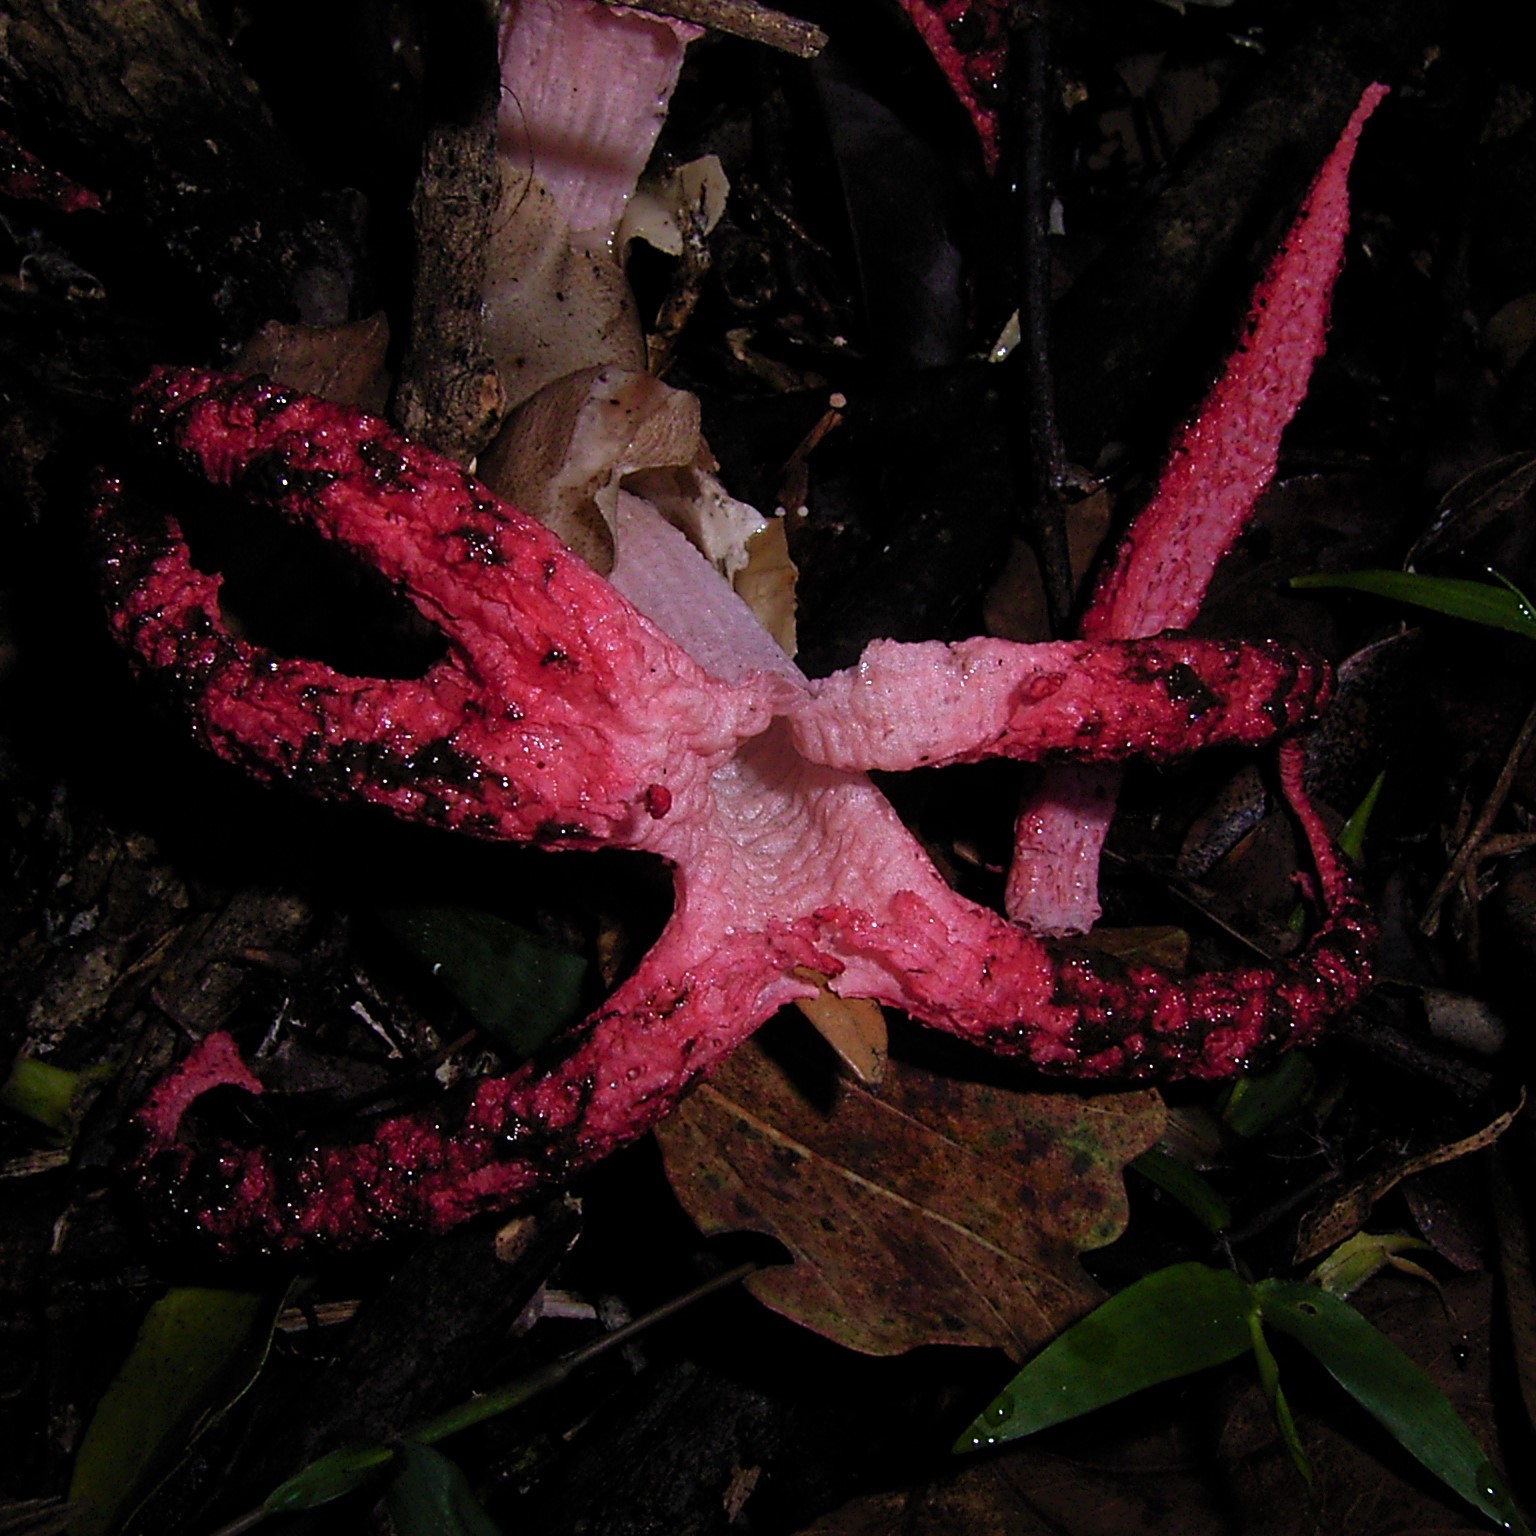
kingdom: Fungi
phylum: Basidiomycota
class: Agaricomycetes
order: Phallales
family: Phallaceae
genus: Clathrus
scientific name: Clathrus archeri
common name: Devil's fingers
